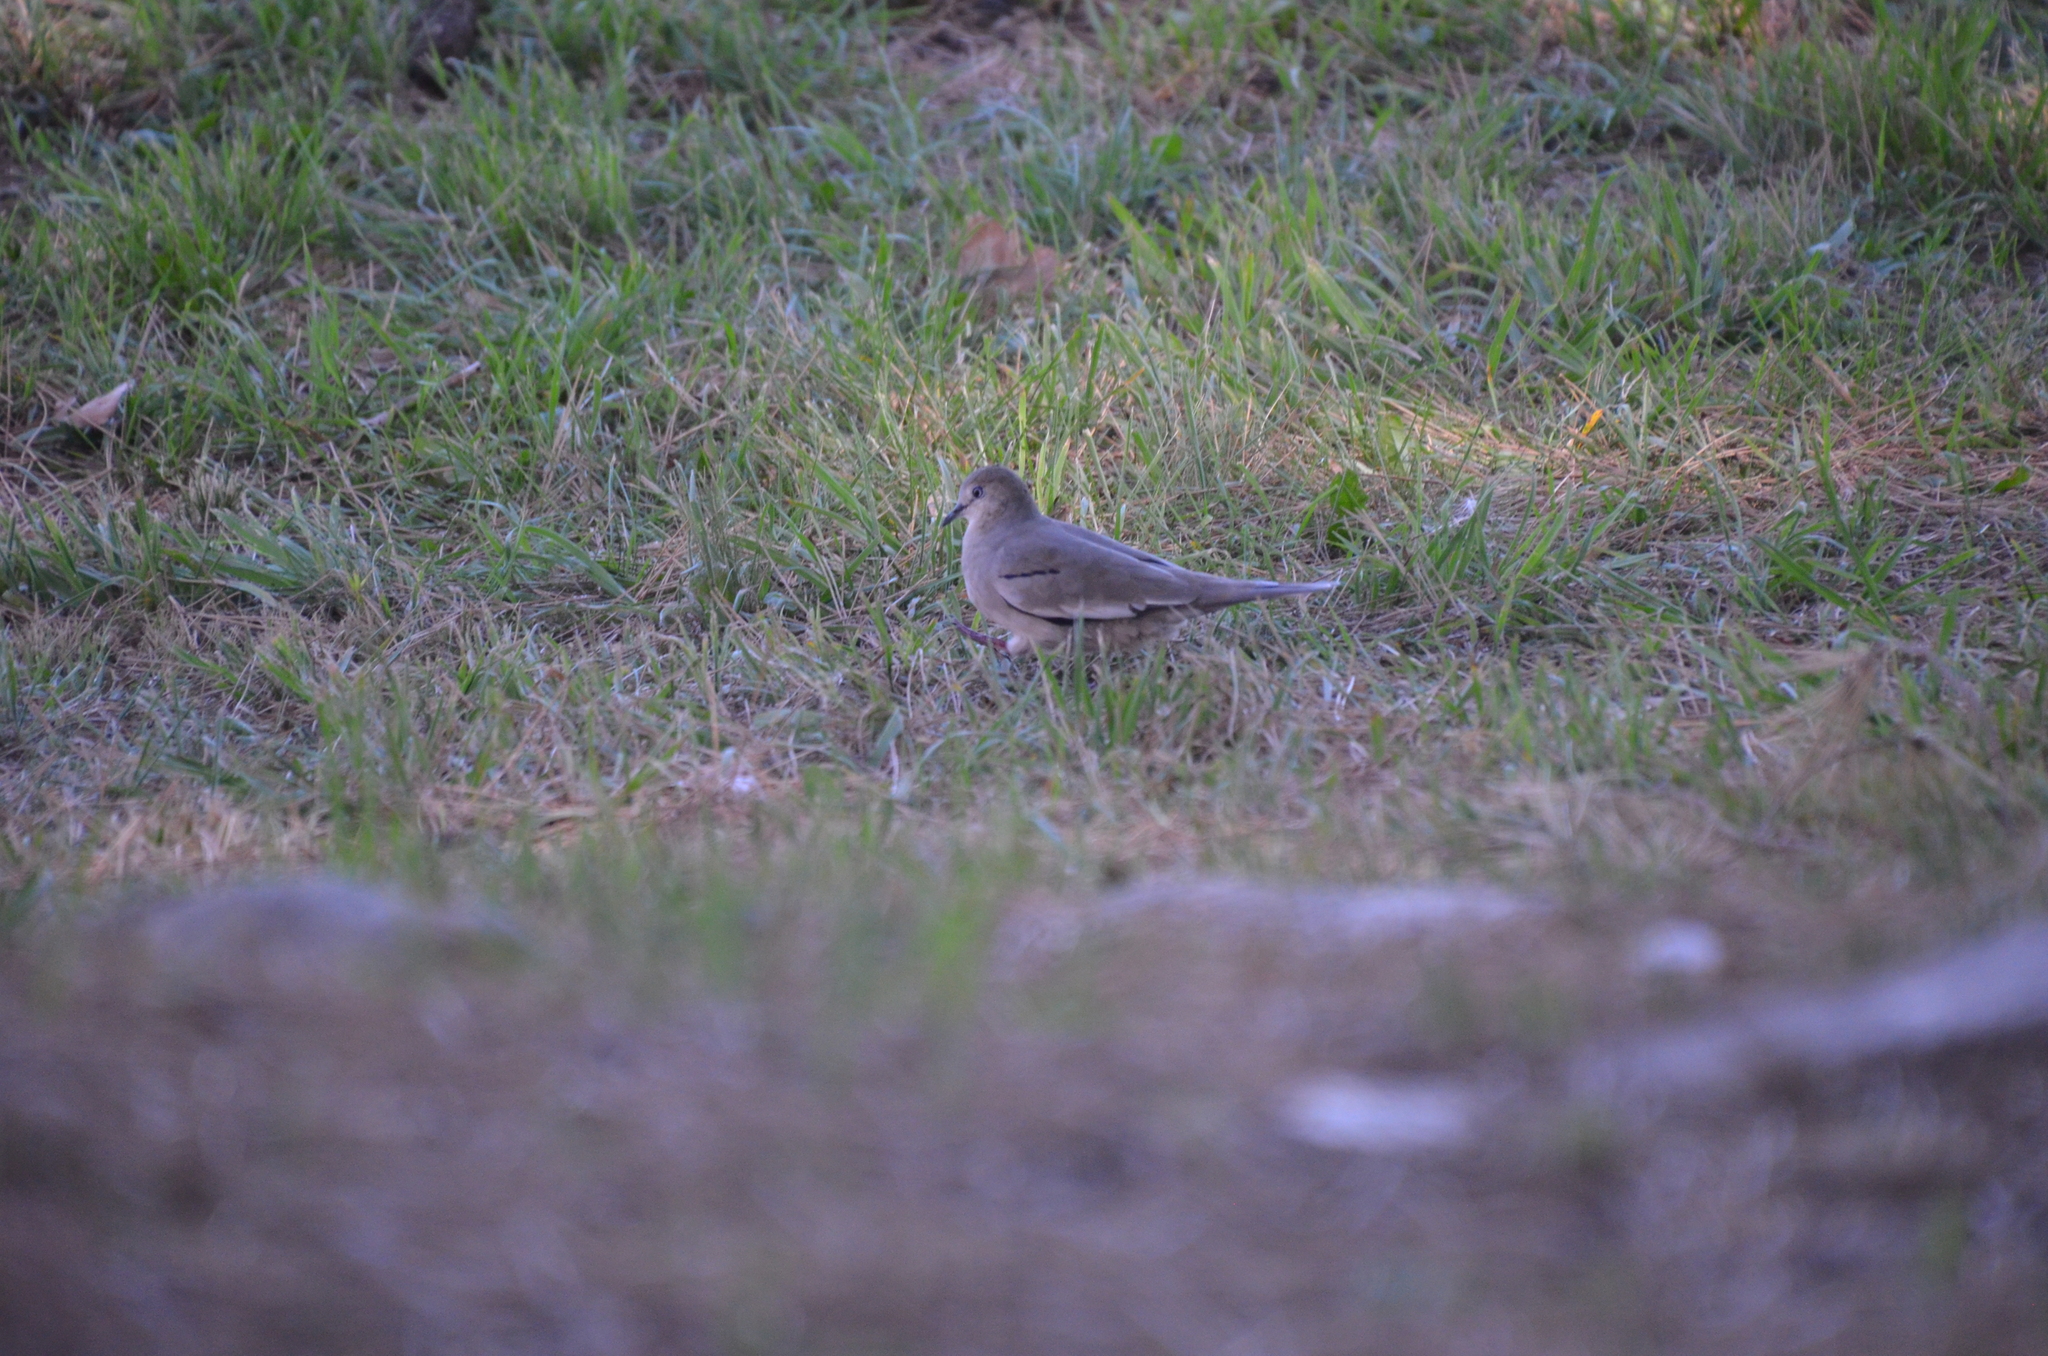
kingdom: Animalia
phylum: Chordata
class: Aves
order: Columbiformes
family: Columbidae
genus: Columbina
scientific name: Columbina picui
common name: Picui ground dove
